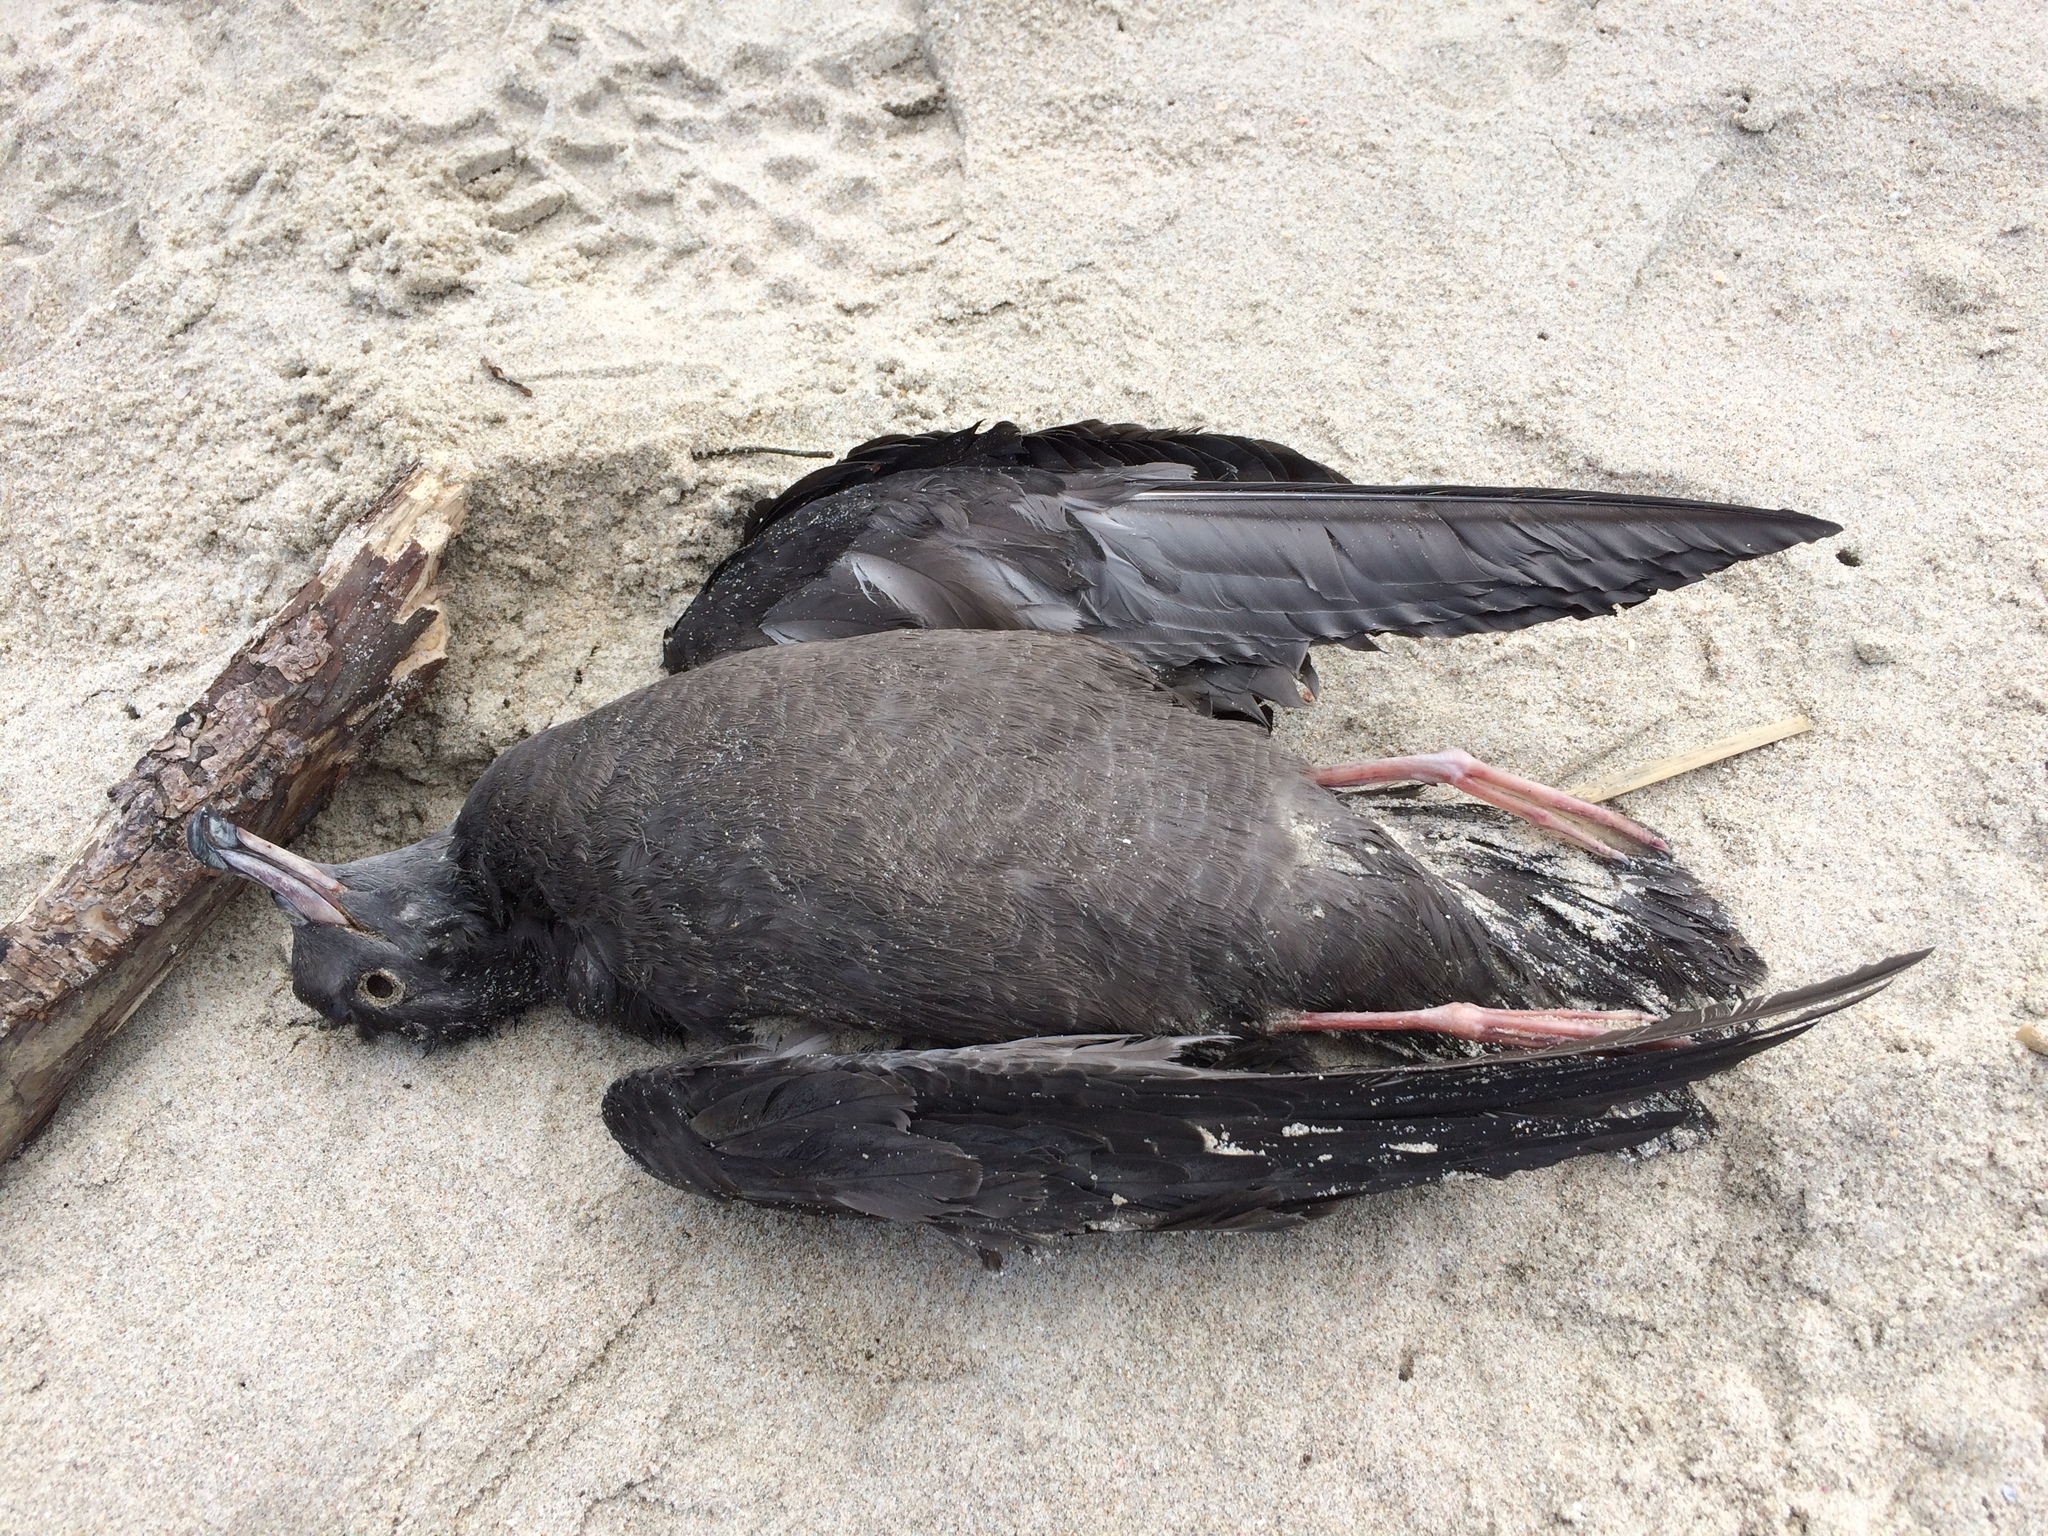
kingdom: Animalia
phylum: Chordata
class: Aves
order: Procellariiformes
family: Procellariidae
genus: Puffinus
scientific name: Puffinus carneipes
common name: Flesh-footed shearwater
